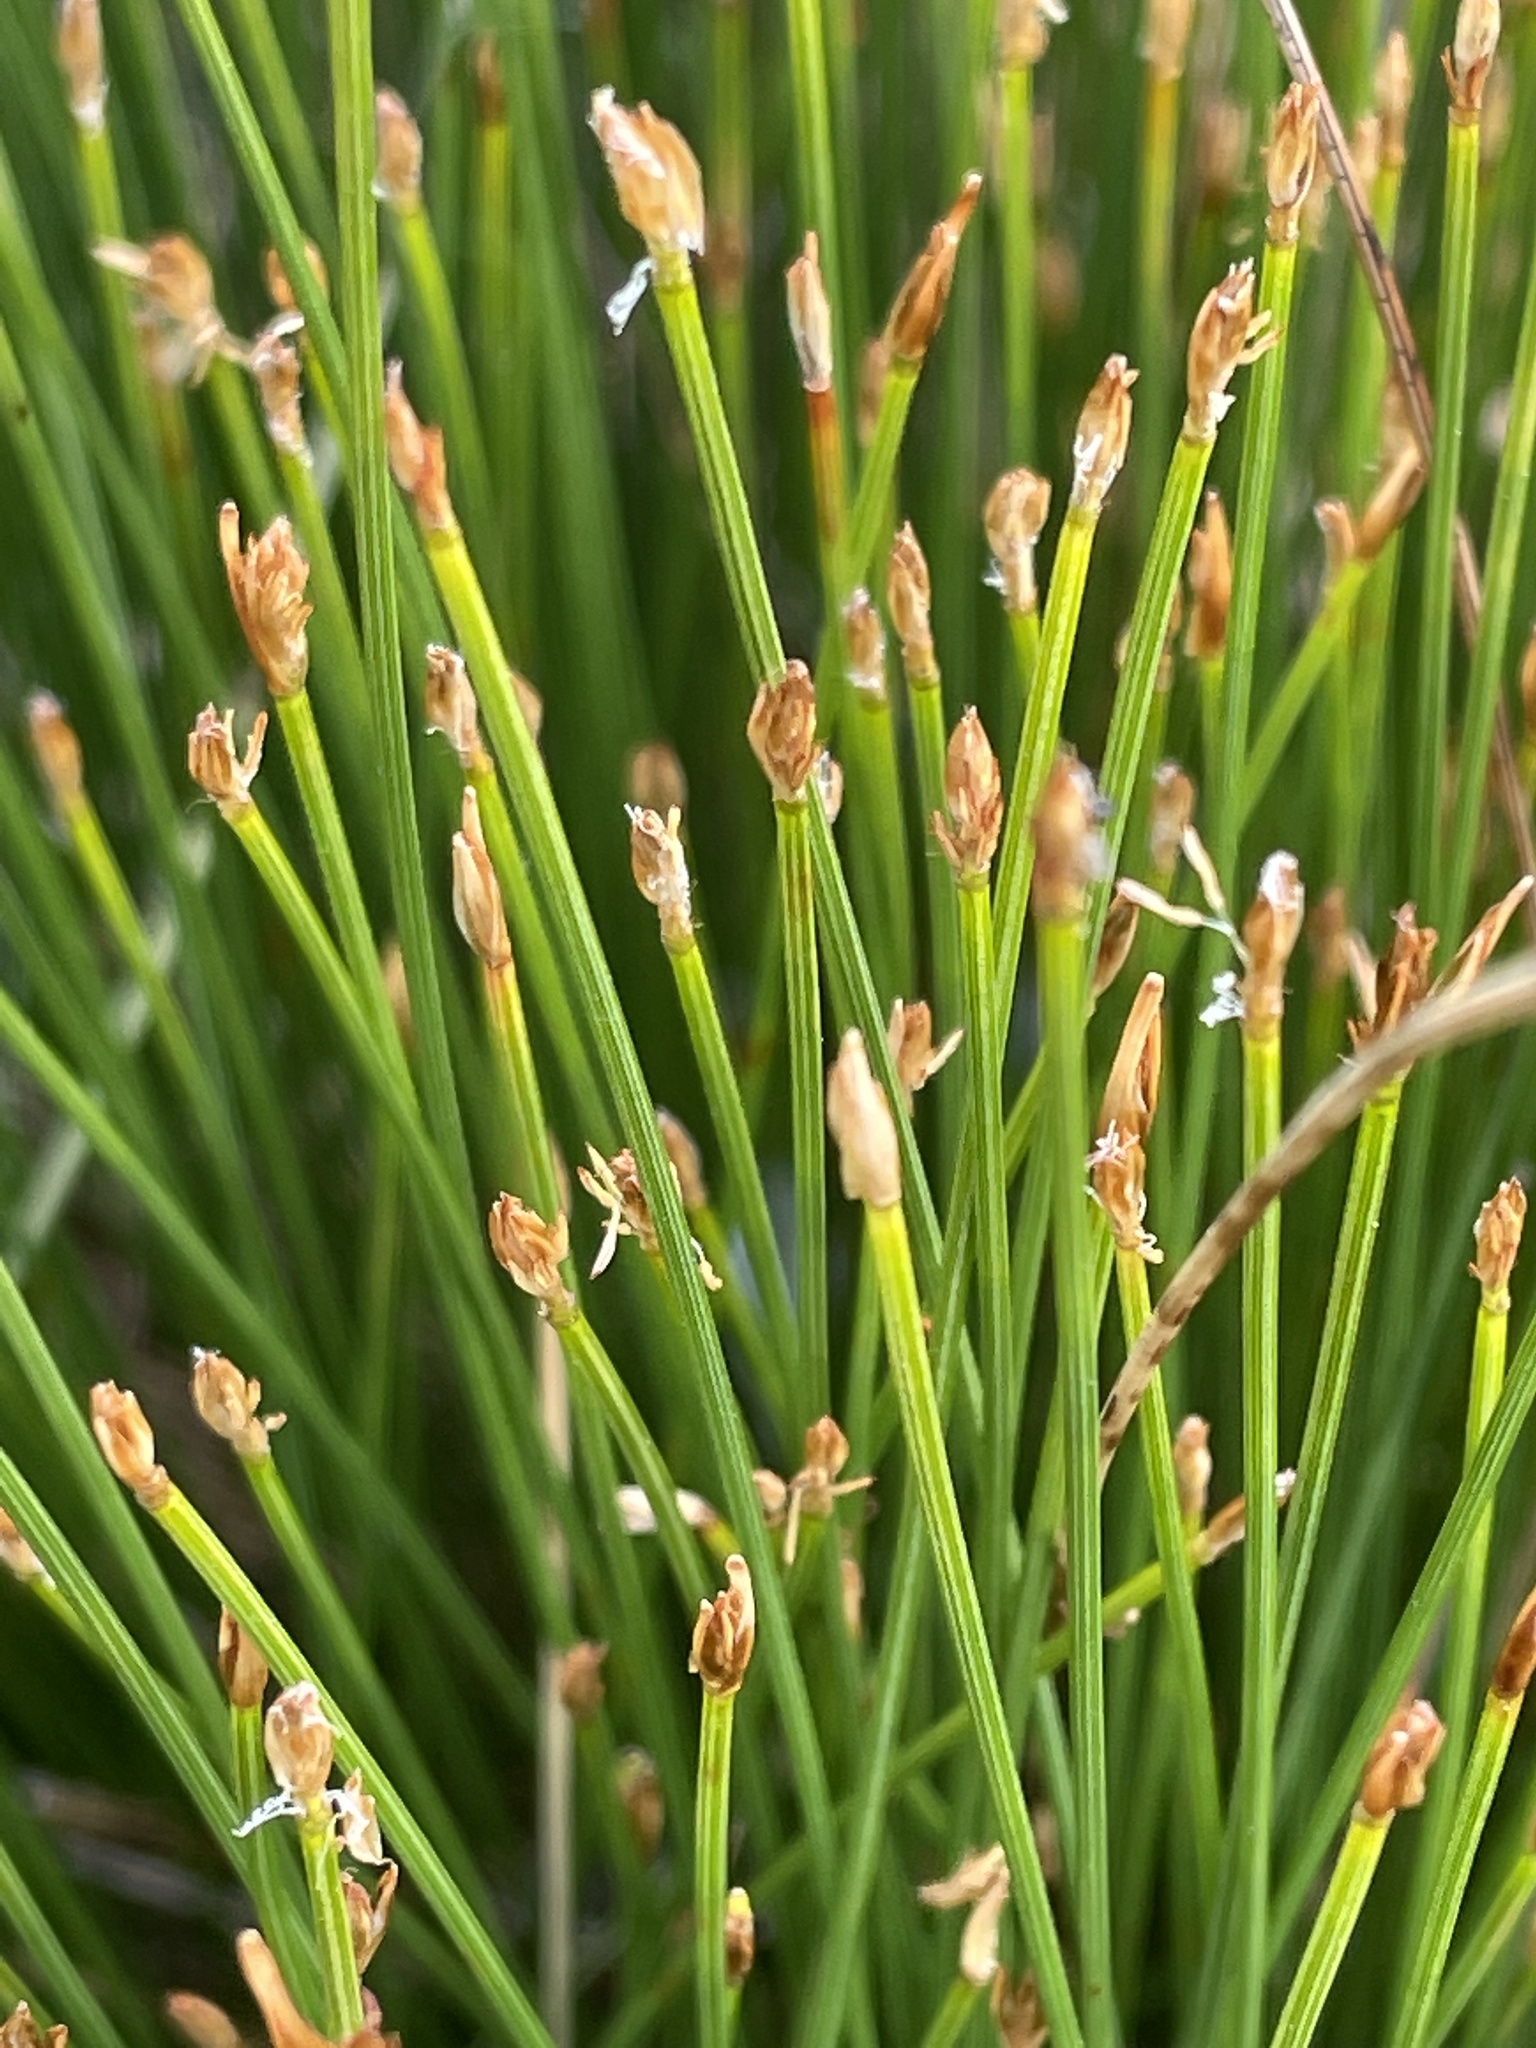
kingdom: Plantae
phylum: Tracheophyta
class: Liliopsida
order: Poales
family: Cyperaceae
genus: Trichophorum
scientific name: Trichophorum cespitosum
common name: Cespitose bulrush
